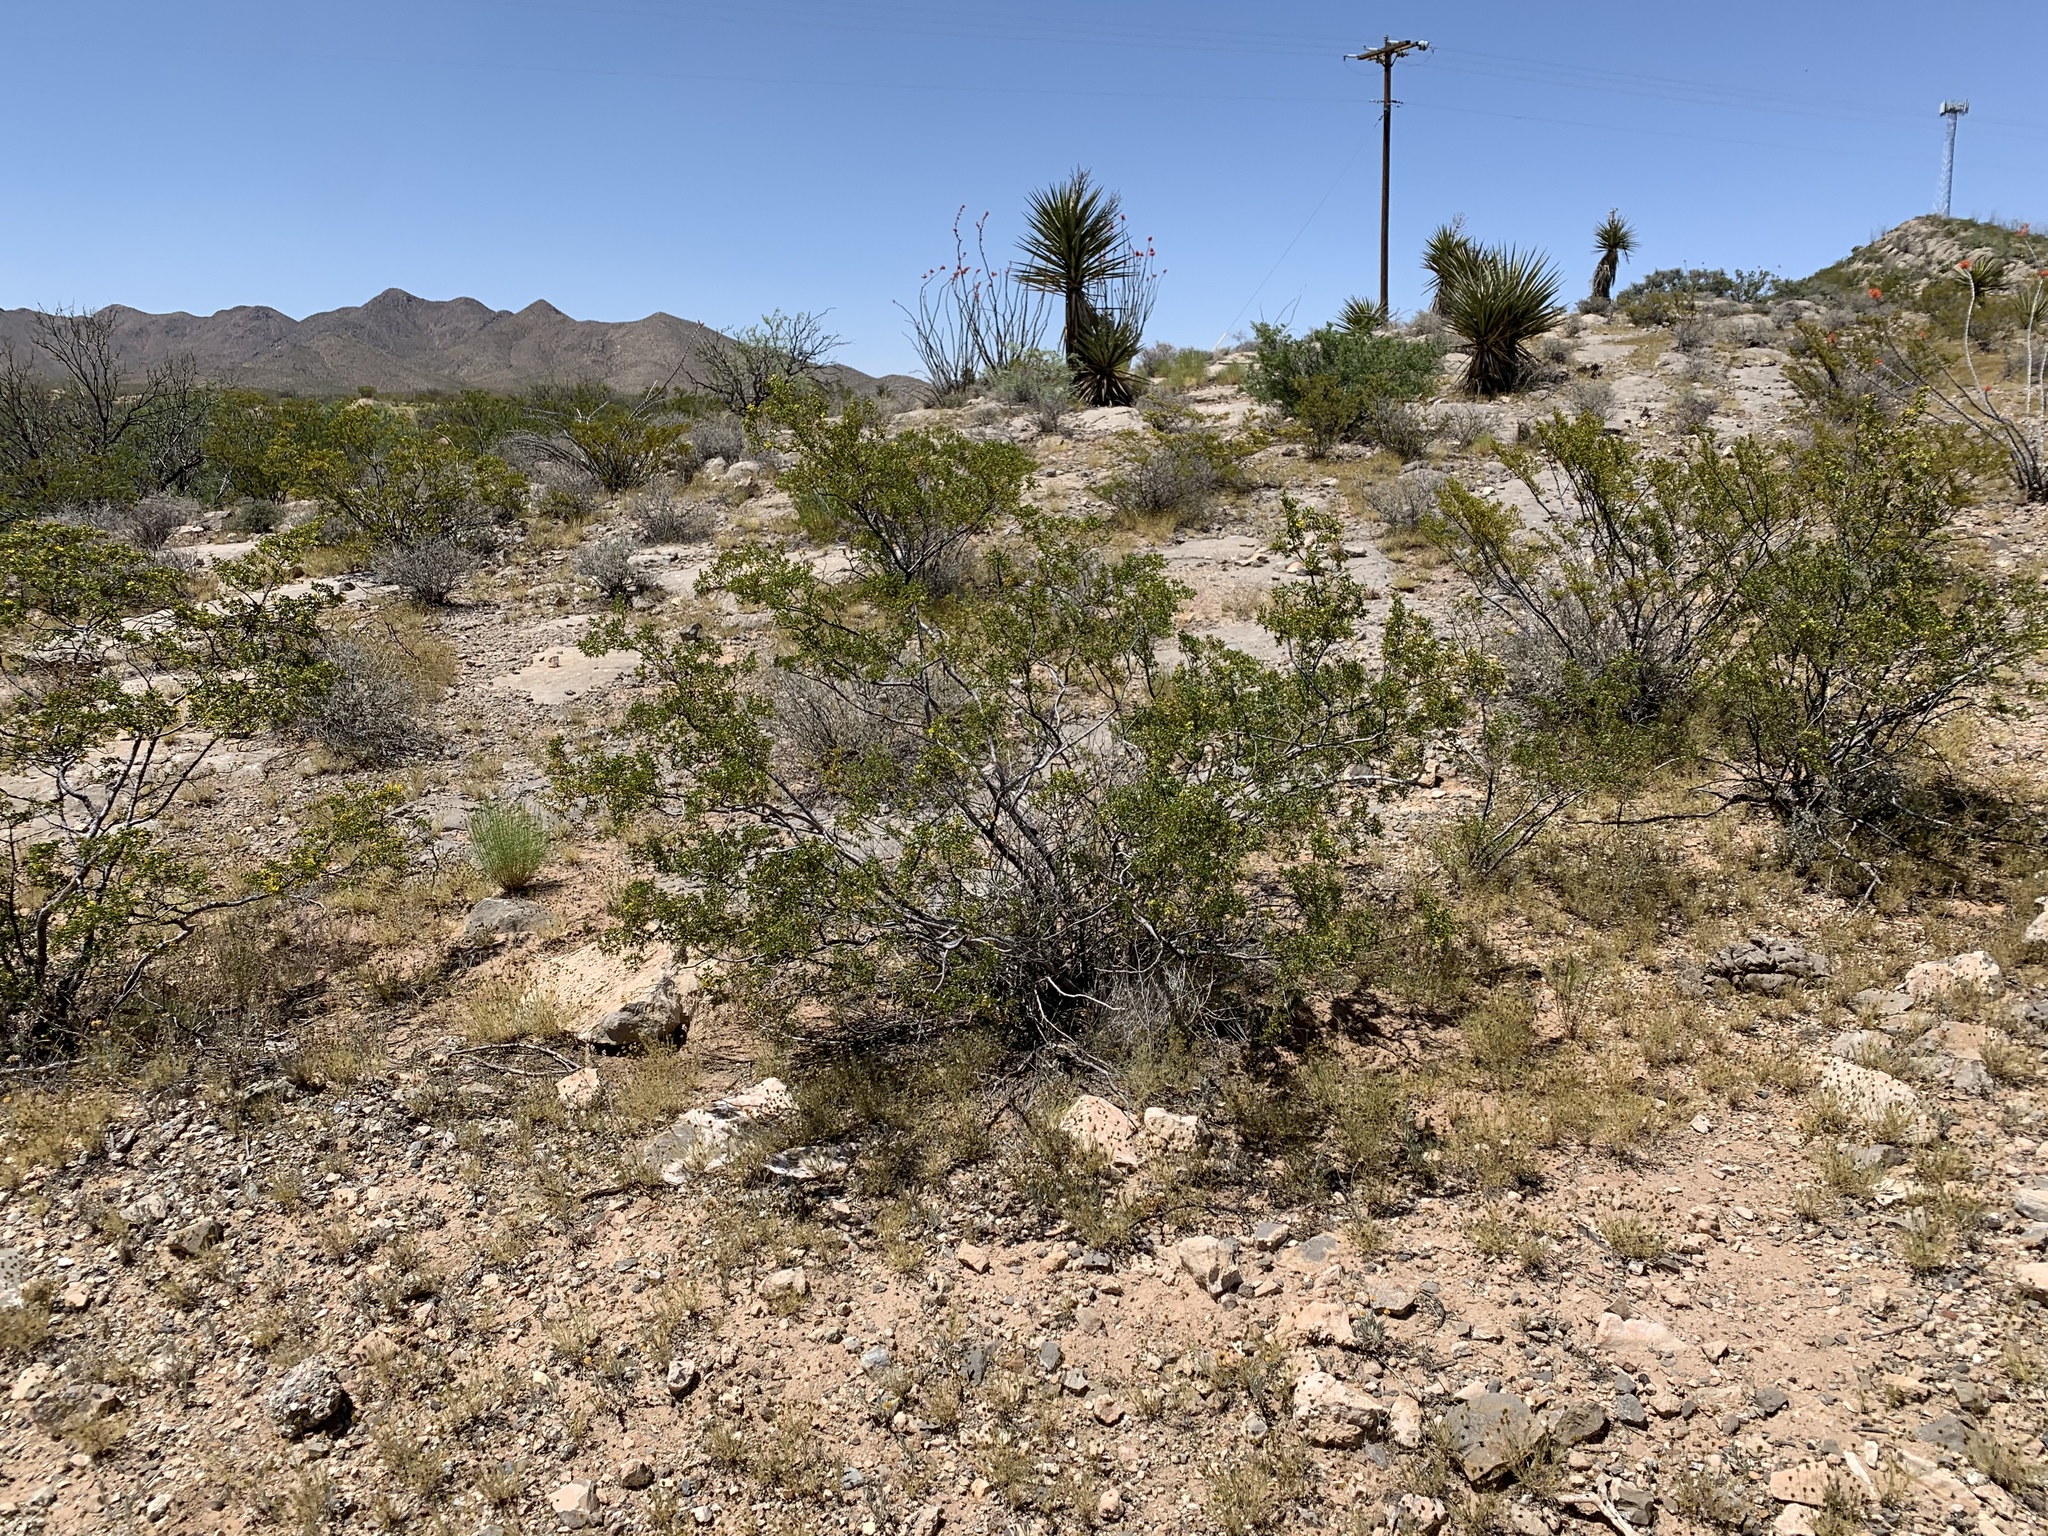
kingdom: Plantae
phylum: Tracheophyta
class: Magnoliopsida
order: Zygophyllales
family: Zygophyllaceae
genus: Larrea
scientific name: Larrea tridentata
